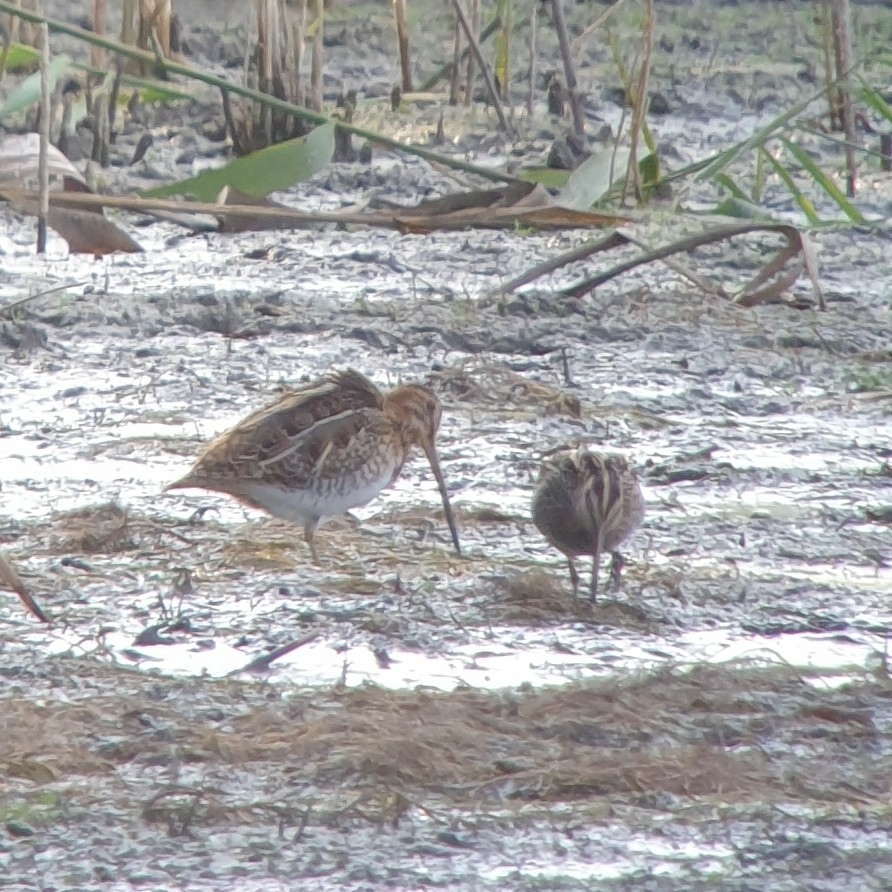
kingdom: Animalia
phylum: Chordata
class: Aves
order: Charadriiformes
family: Scolopacidae
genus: Gallinago
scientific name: Gallinago gallinago
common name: Common snipe
